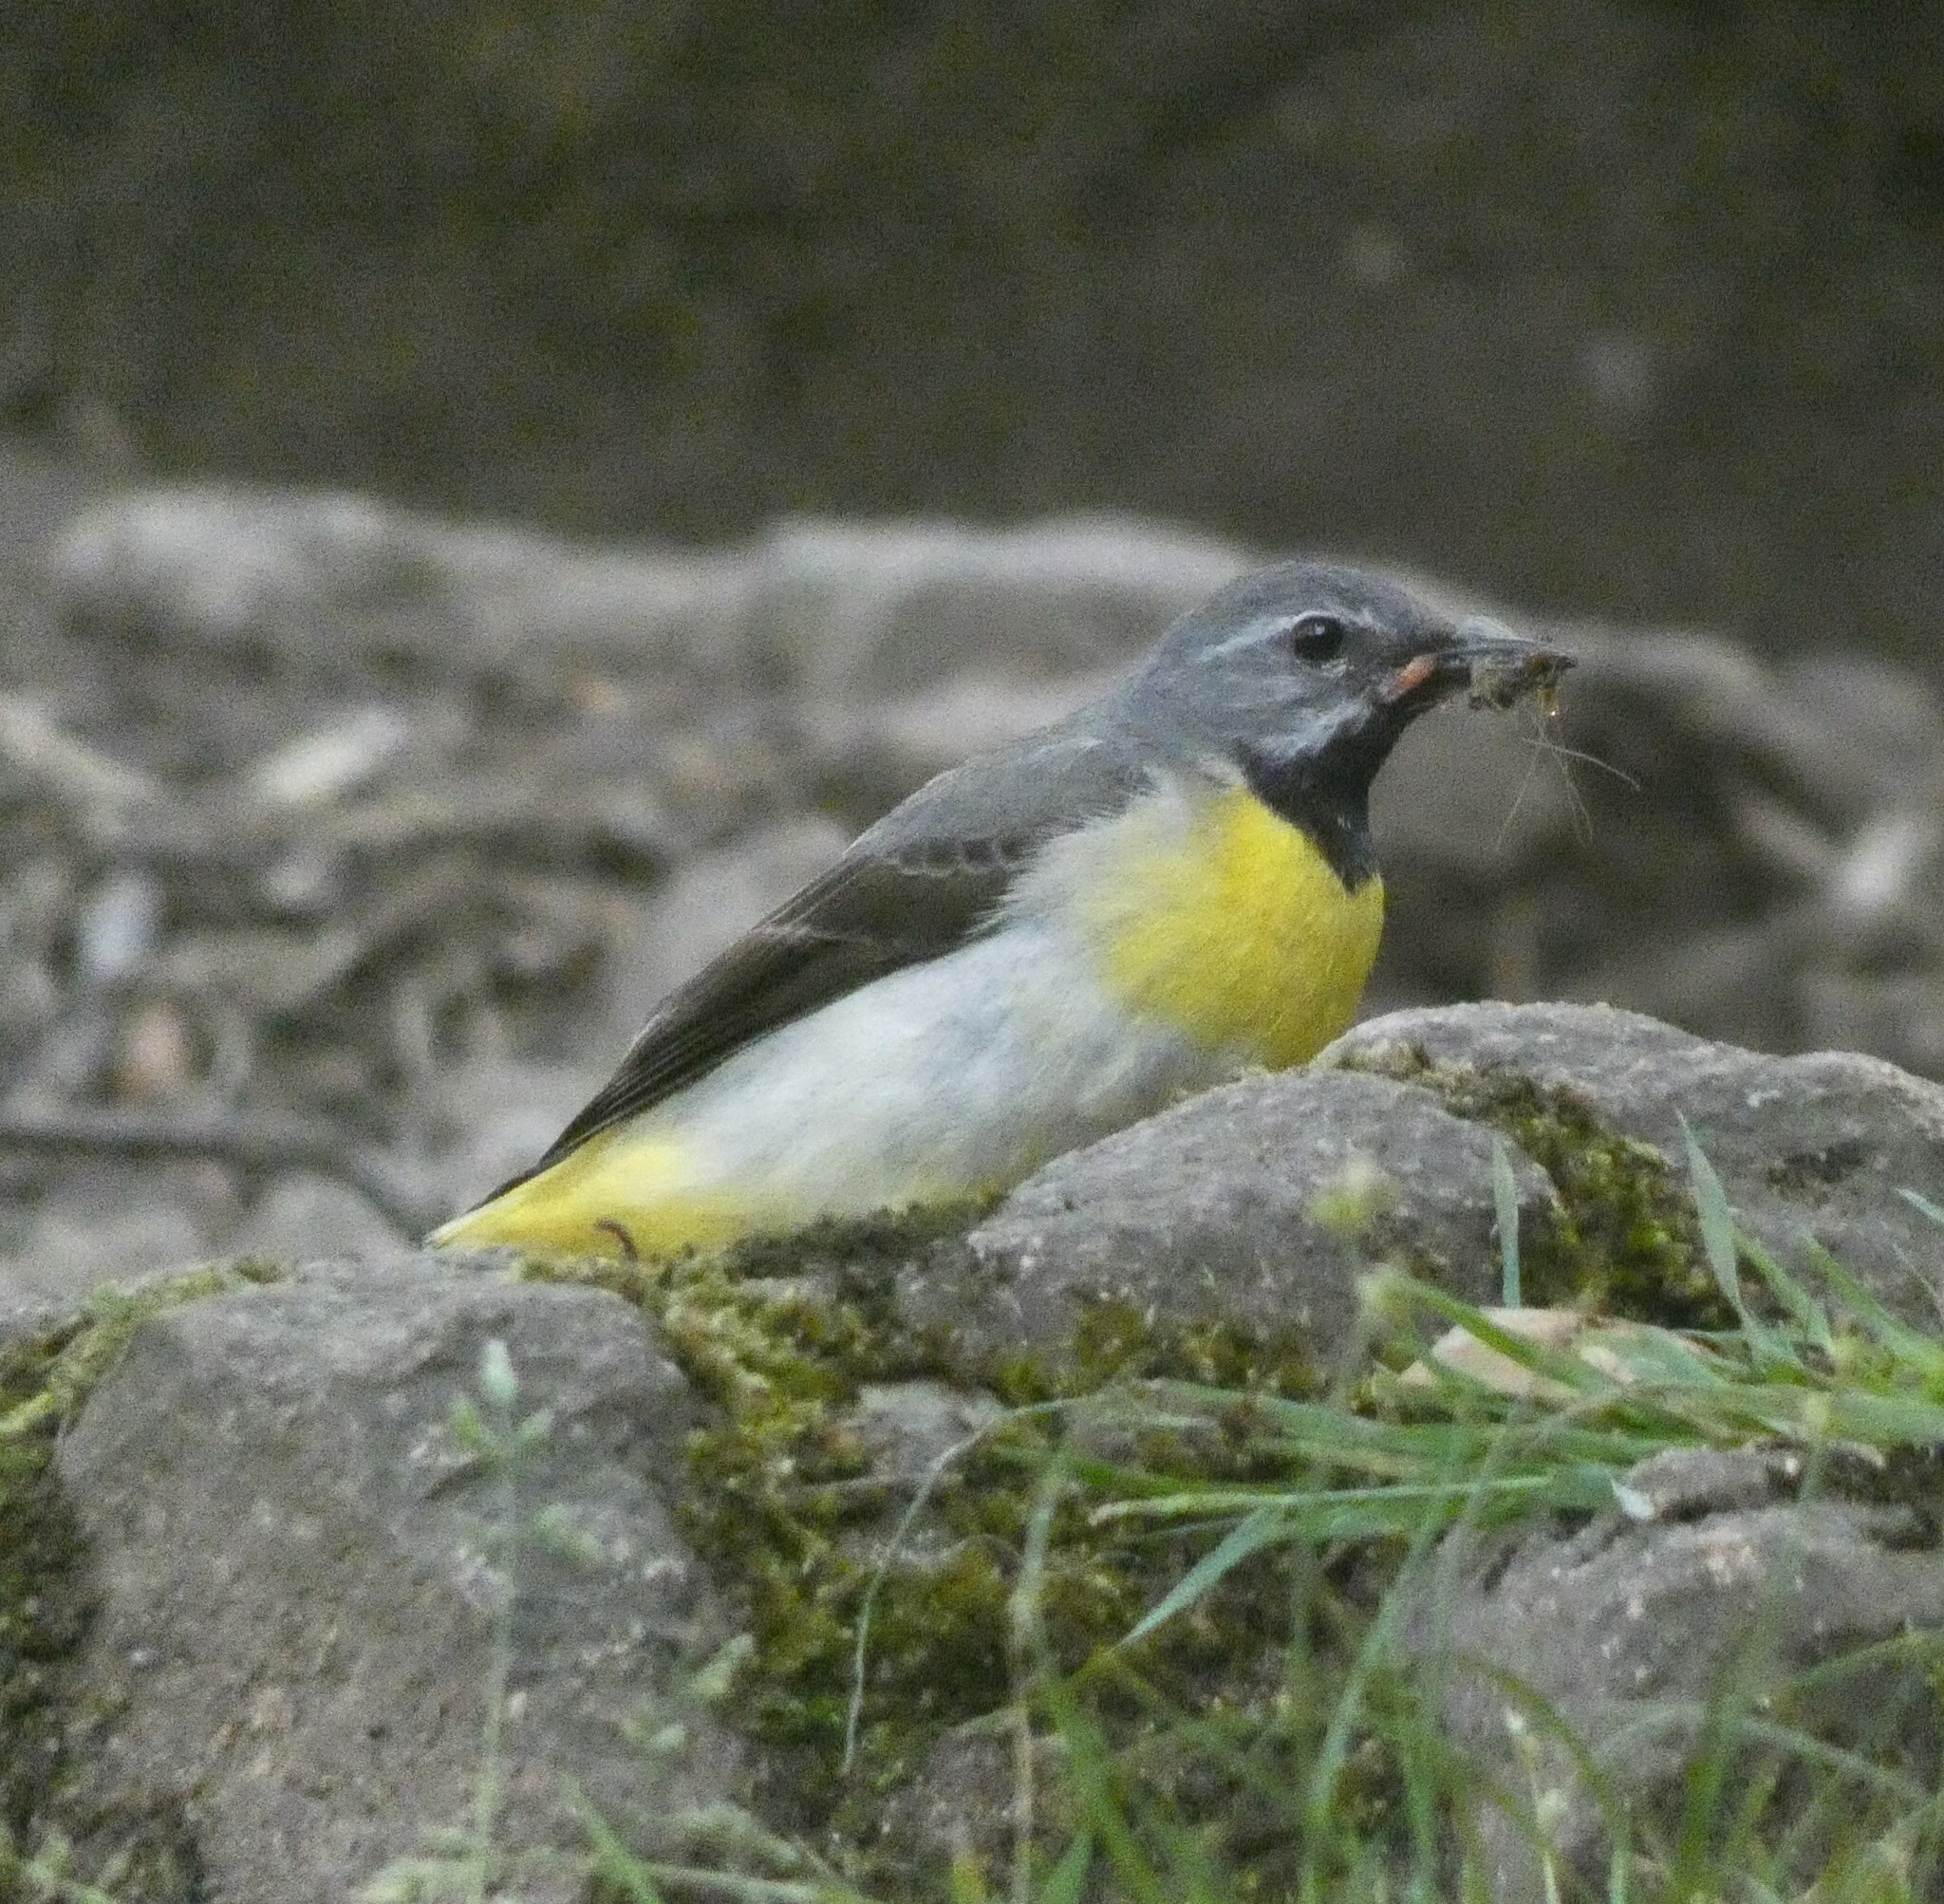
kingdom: Animalia
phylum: Chordata
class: Aves
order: Passeriformes
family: Motacillidae
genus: Motacilla
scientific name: Motacilla cinerea
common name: Grey wagtail
